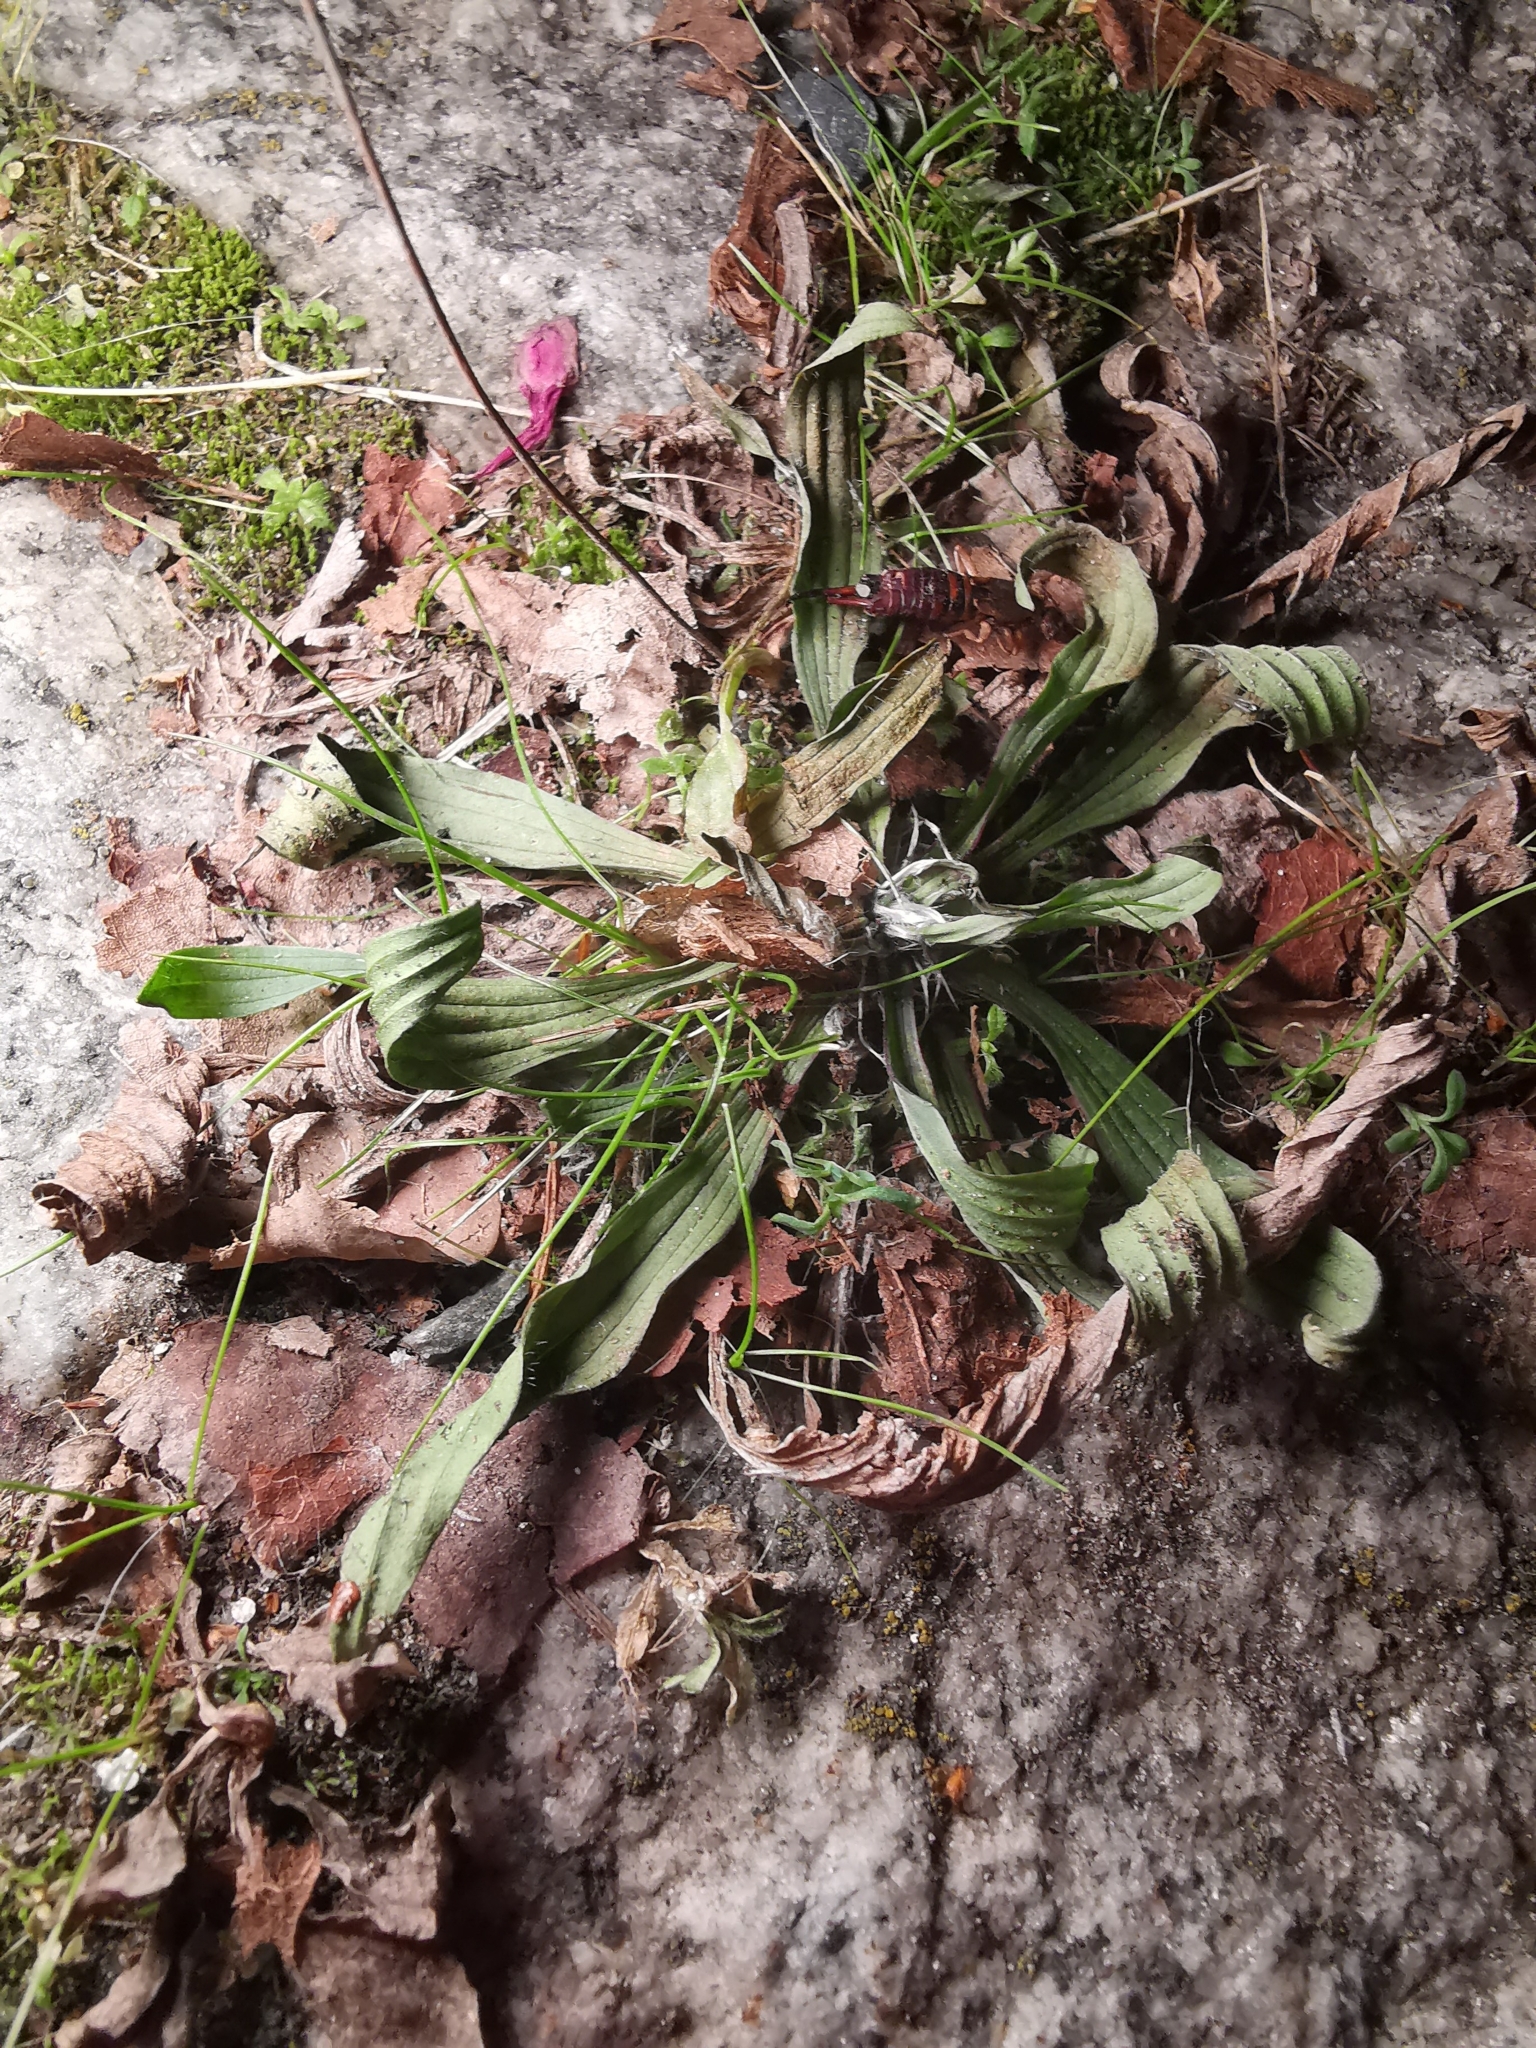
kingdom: Plantae
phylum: Tracheophyta
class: Magnoliopsida
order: Lamiales
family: Plantaginaceae
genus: Plantago
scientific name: Plantago lanceolata
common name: Ribwort plantain
